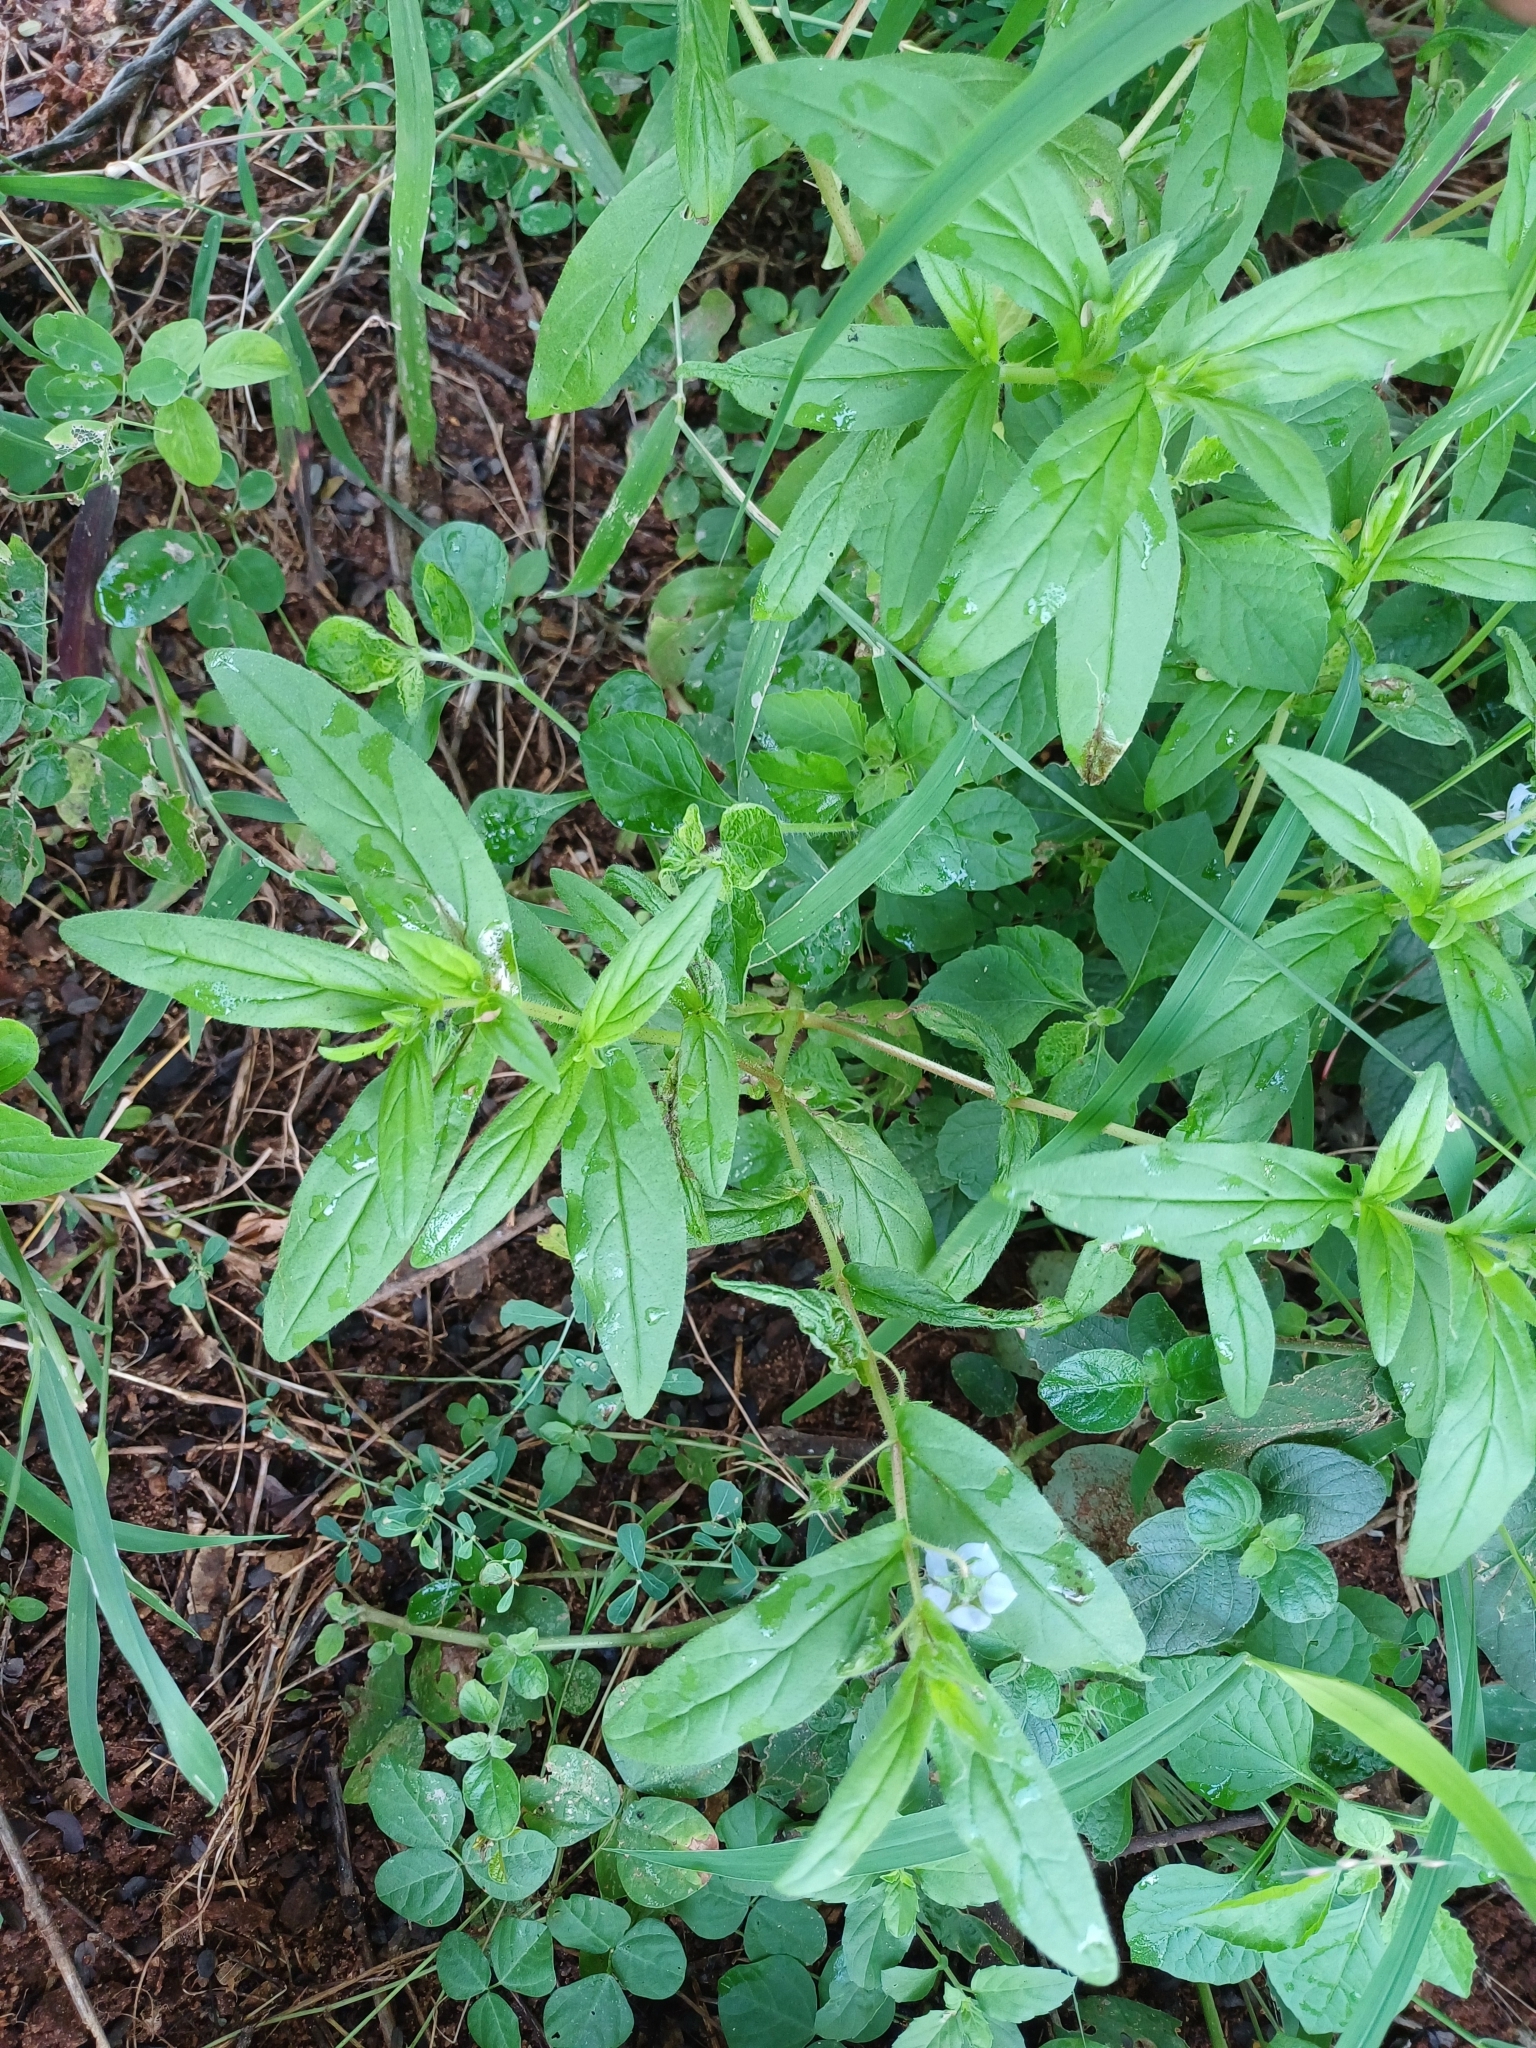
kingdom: Plantae
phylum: Tracheophyta
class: Magnoliopsida
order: Boraginales
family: Boraginaceae
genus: Trichodesma
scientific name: Trichodesma indicum
